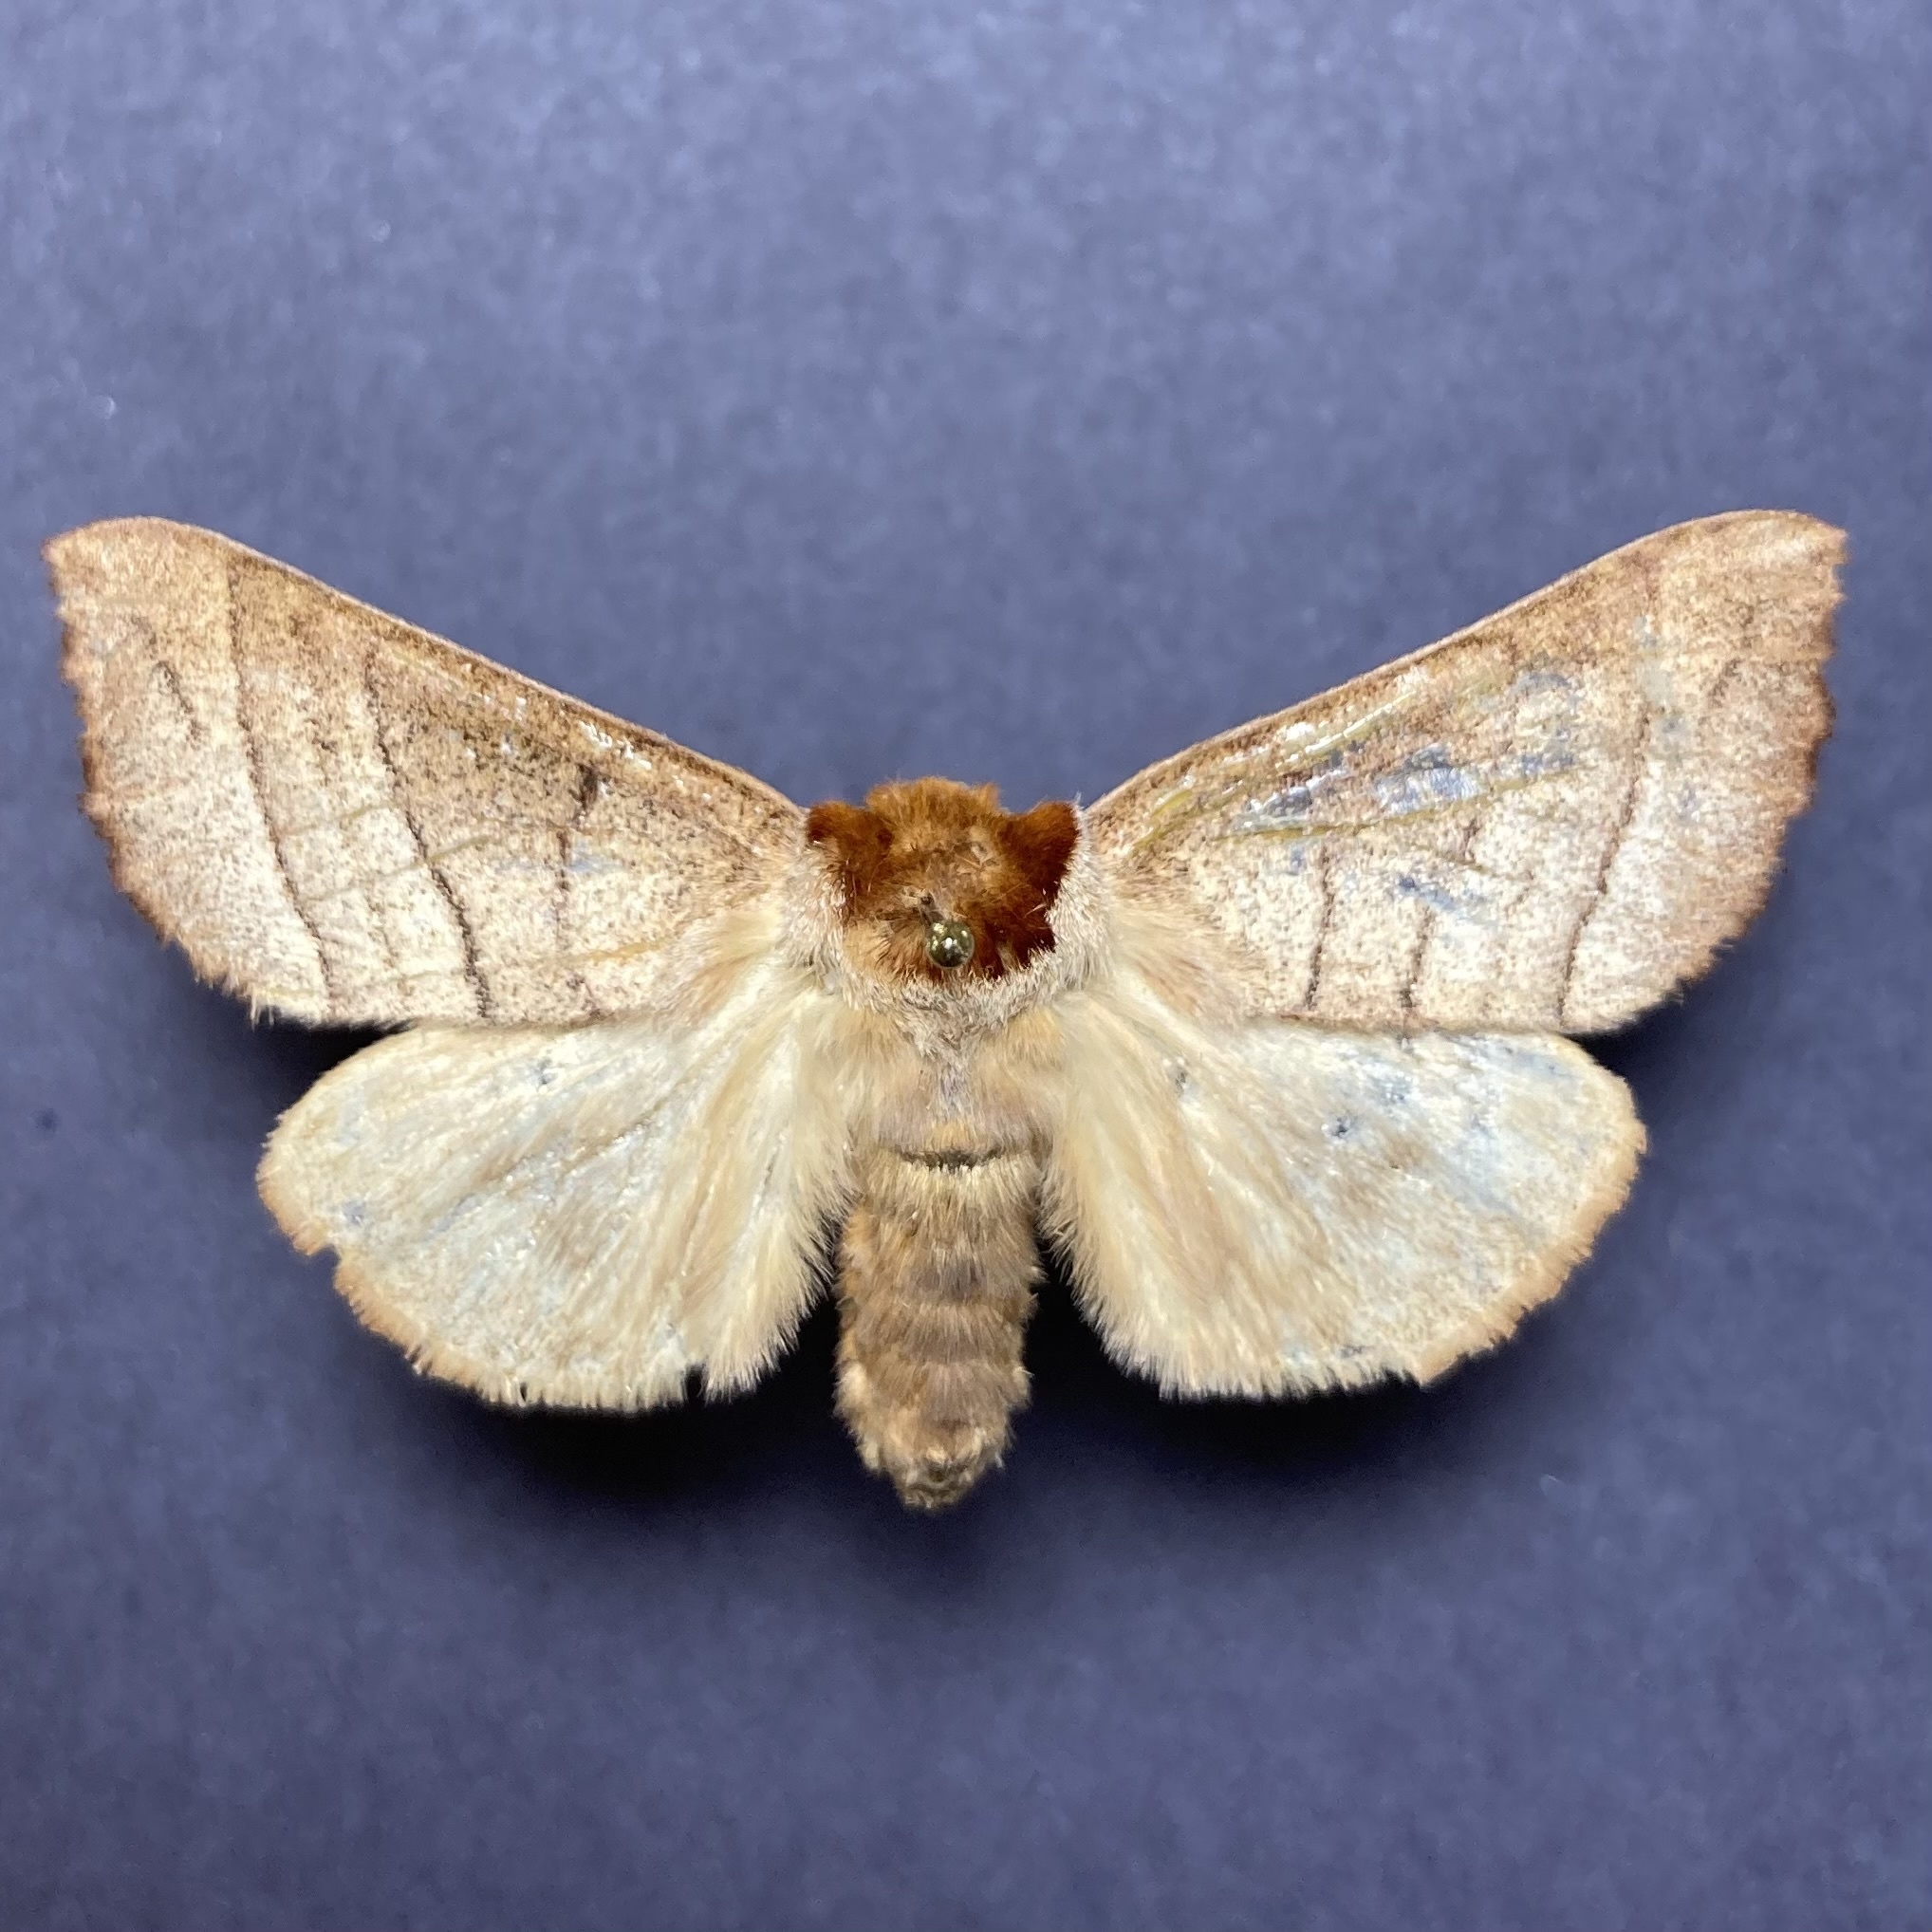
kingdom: Animalia
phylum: Arthropoda
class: Insecta
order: Lepidoptera
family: Notodontidae
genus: Datana
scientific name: Datana ministra
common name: Yellow-necked caterpillar moth
